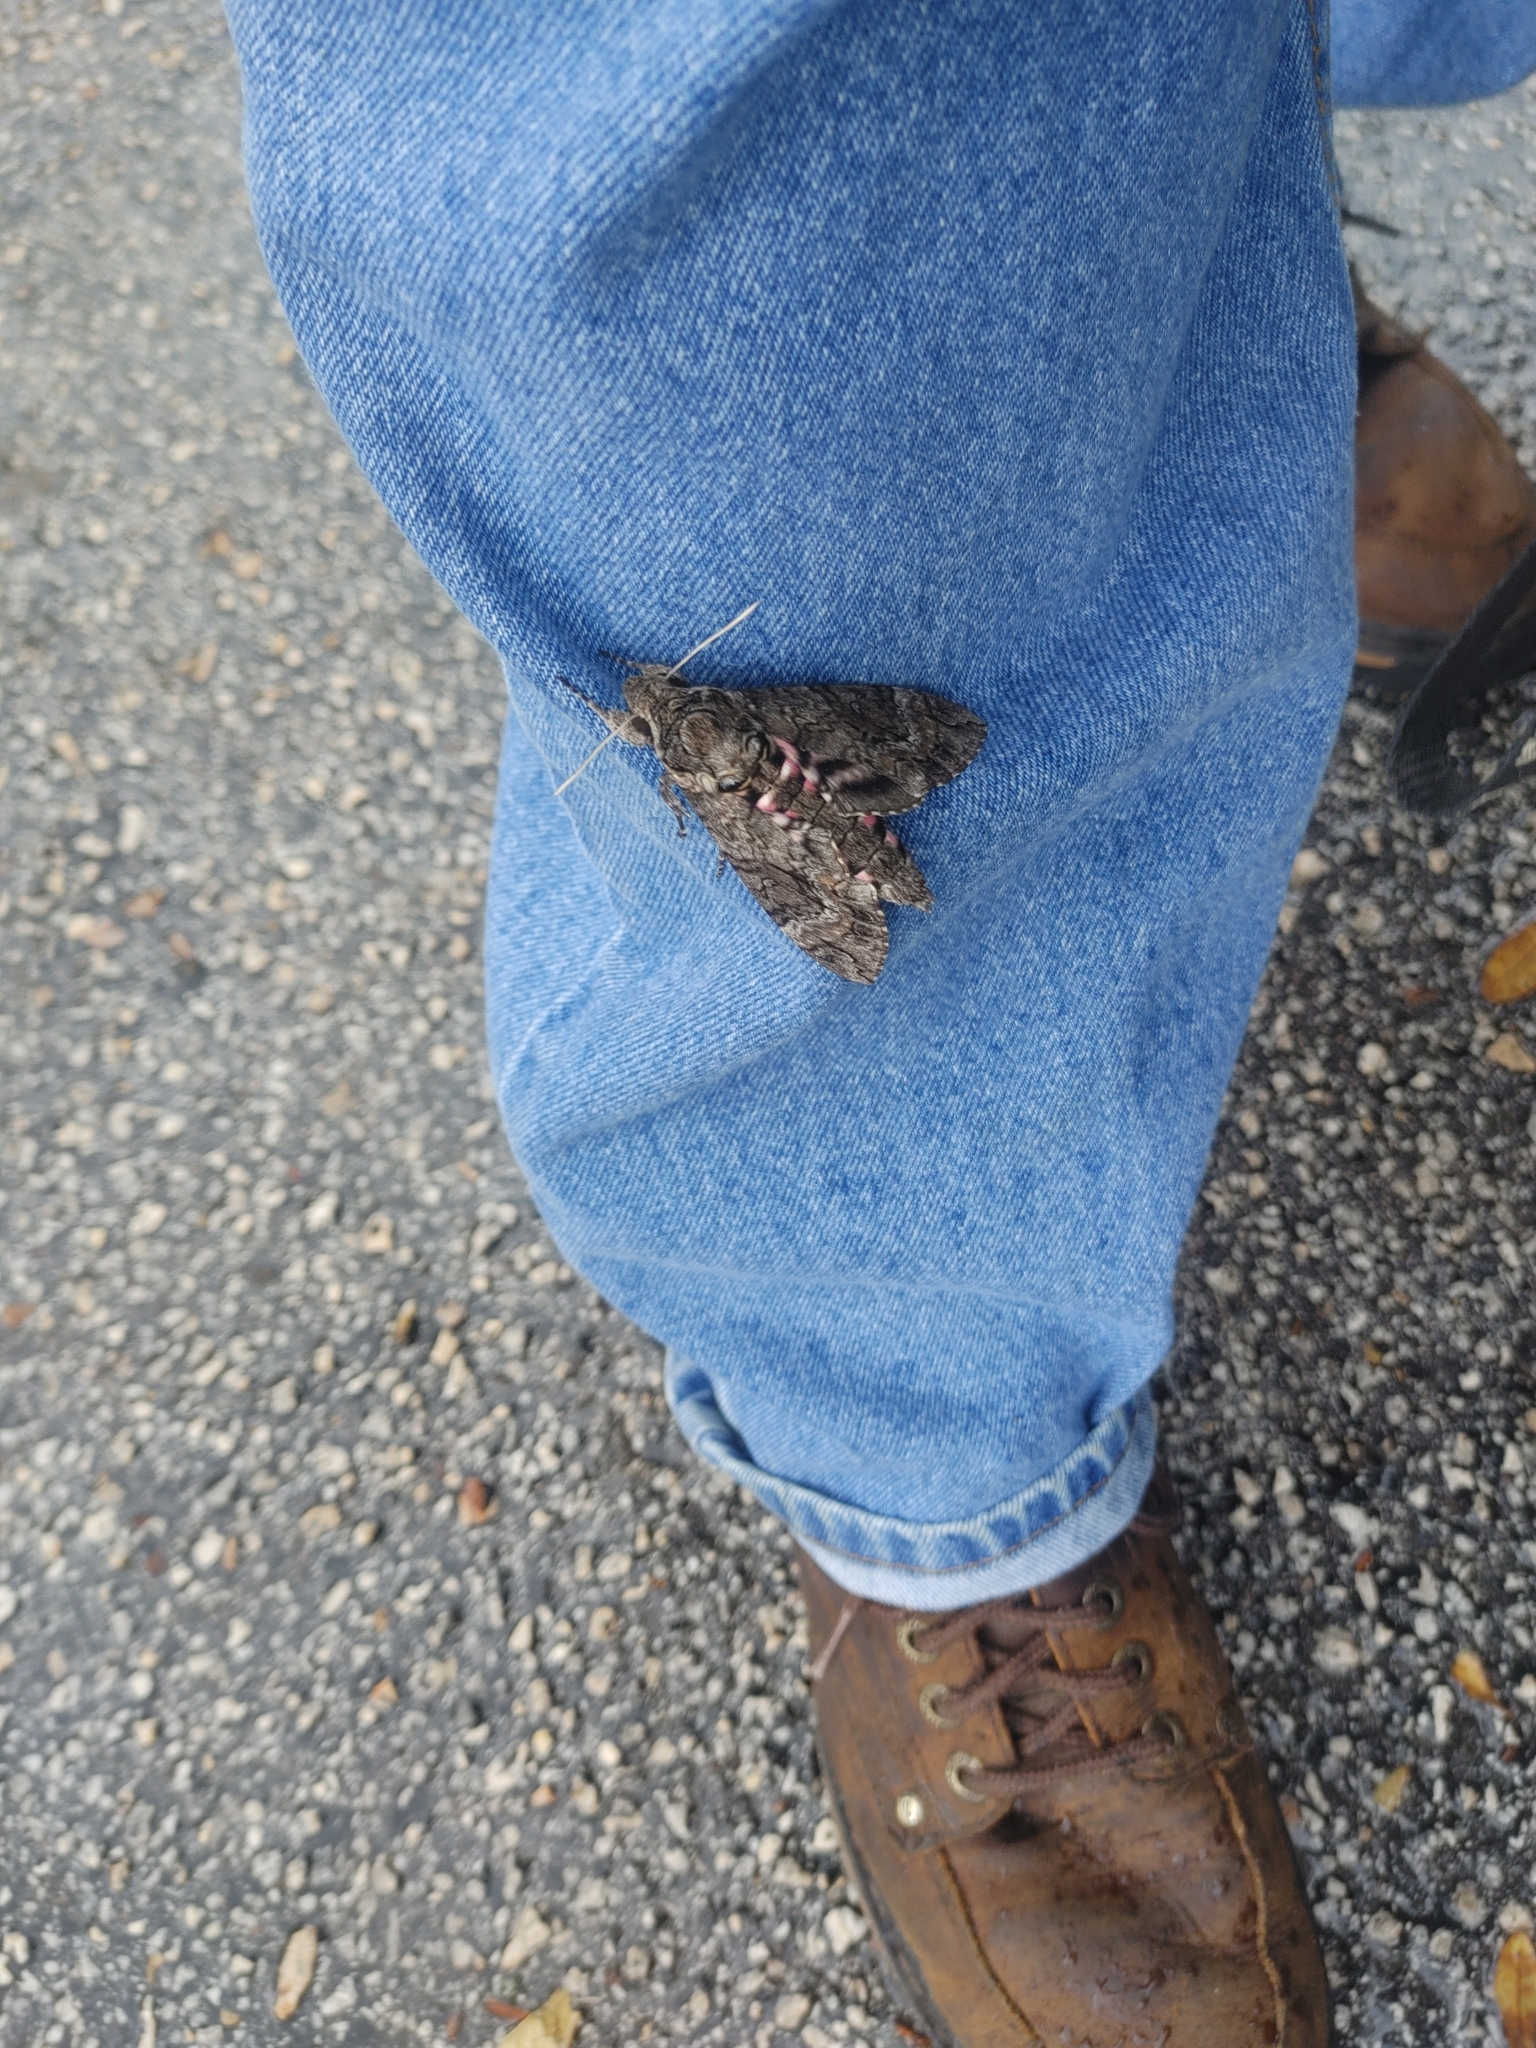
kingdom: Animalia
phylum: Arthropoda
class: Insecta
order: Lepidoptera
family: Sphingidae
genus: Agrius
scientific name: Agrius cingulata
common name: Pink-spotted hawkmoth
